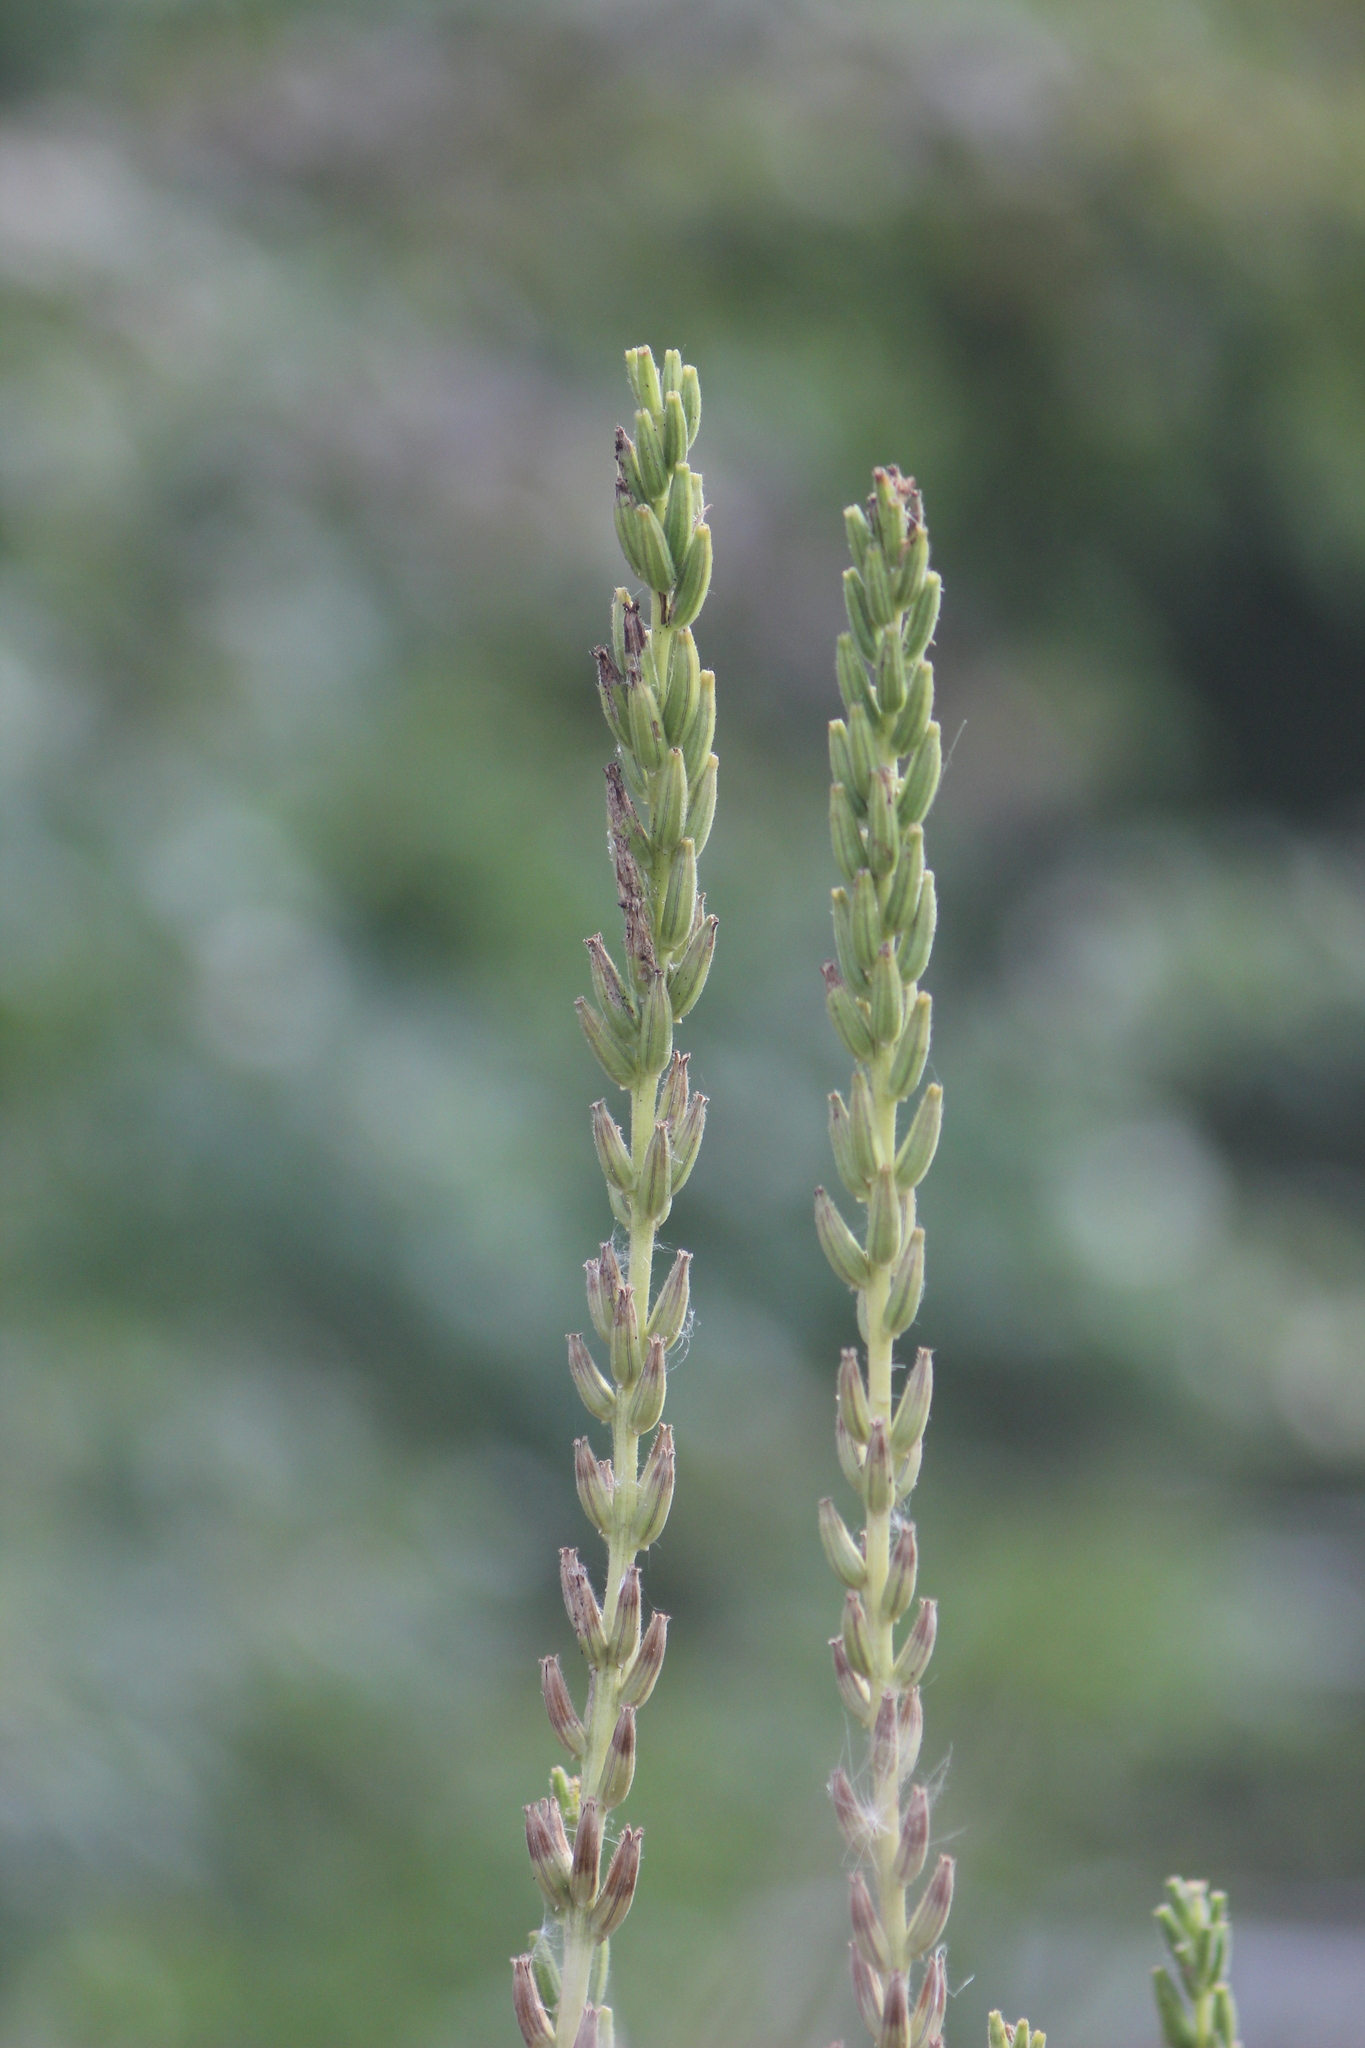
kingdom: Plantae
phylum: Tracheophyta
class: Magnoliopsida
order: Myrtales
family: Onagraceae
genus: Oenothera
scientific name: Oenothera
